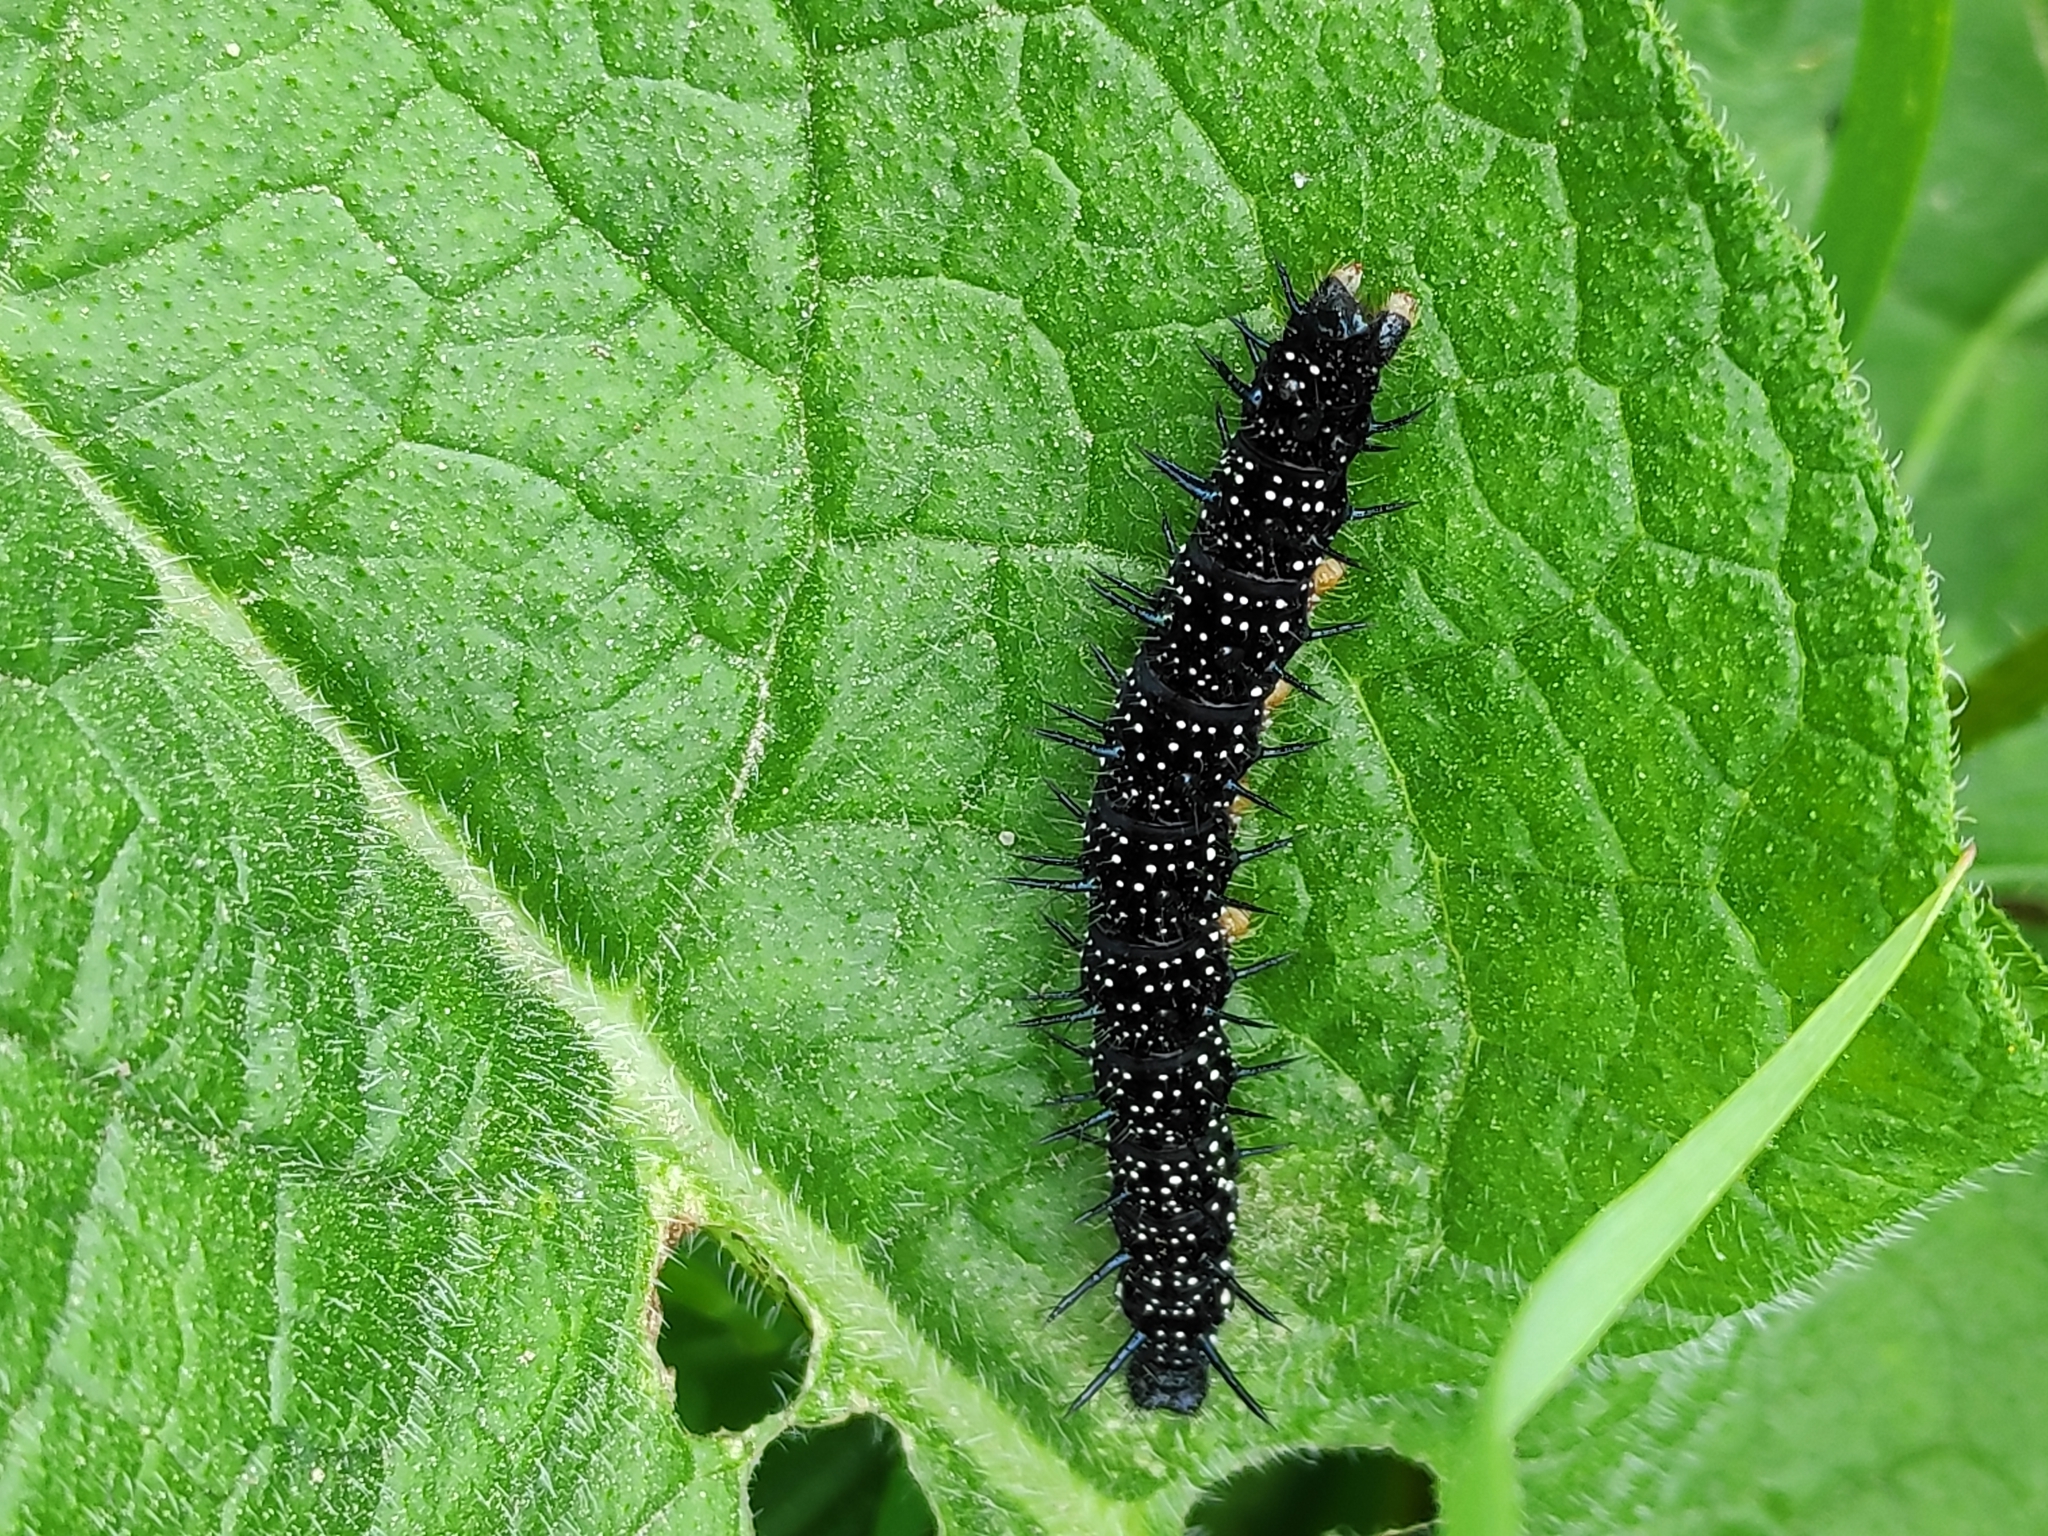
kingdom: Animalia
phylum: Arthropoda
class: Insecta
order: Lepidoptera
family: Nymphalidae
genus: Aglais
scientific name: Aglais io
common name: Peacock
